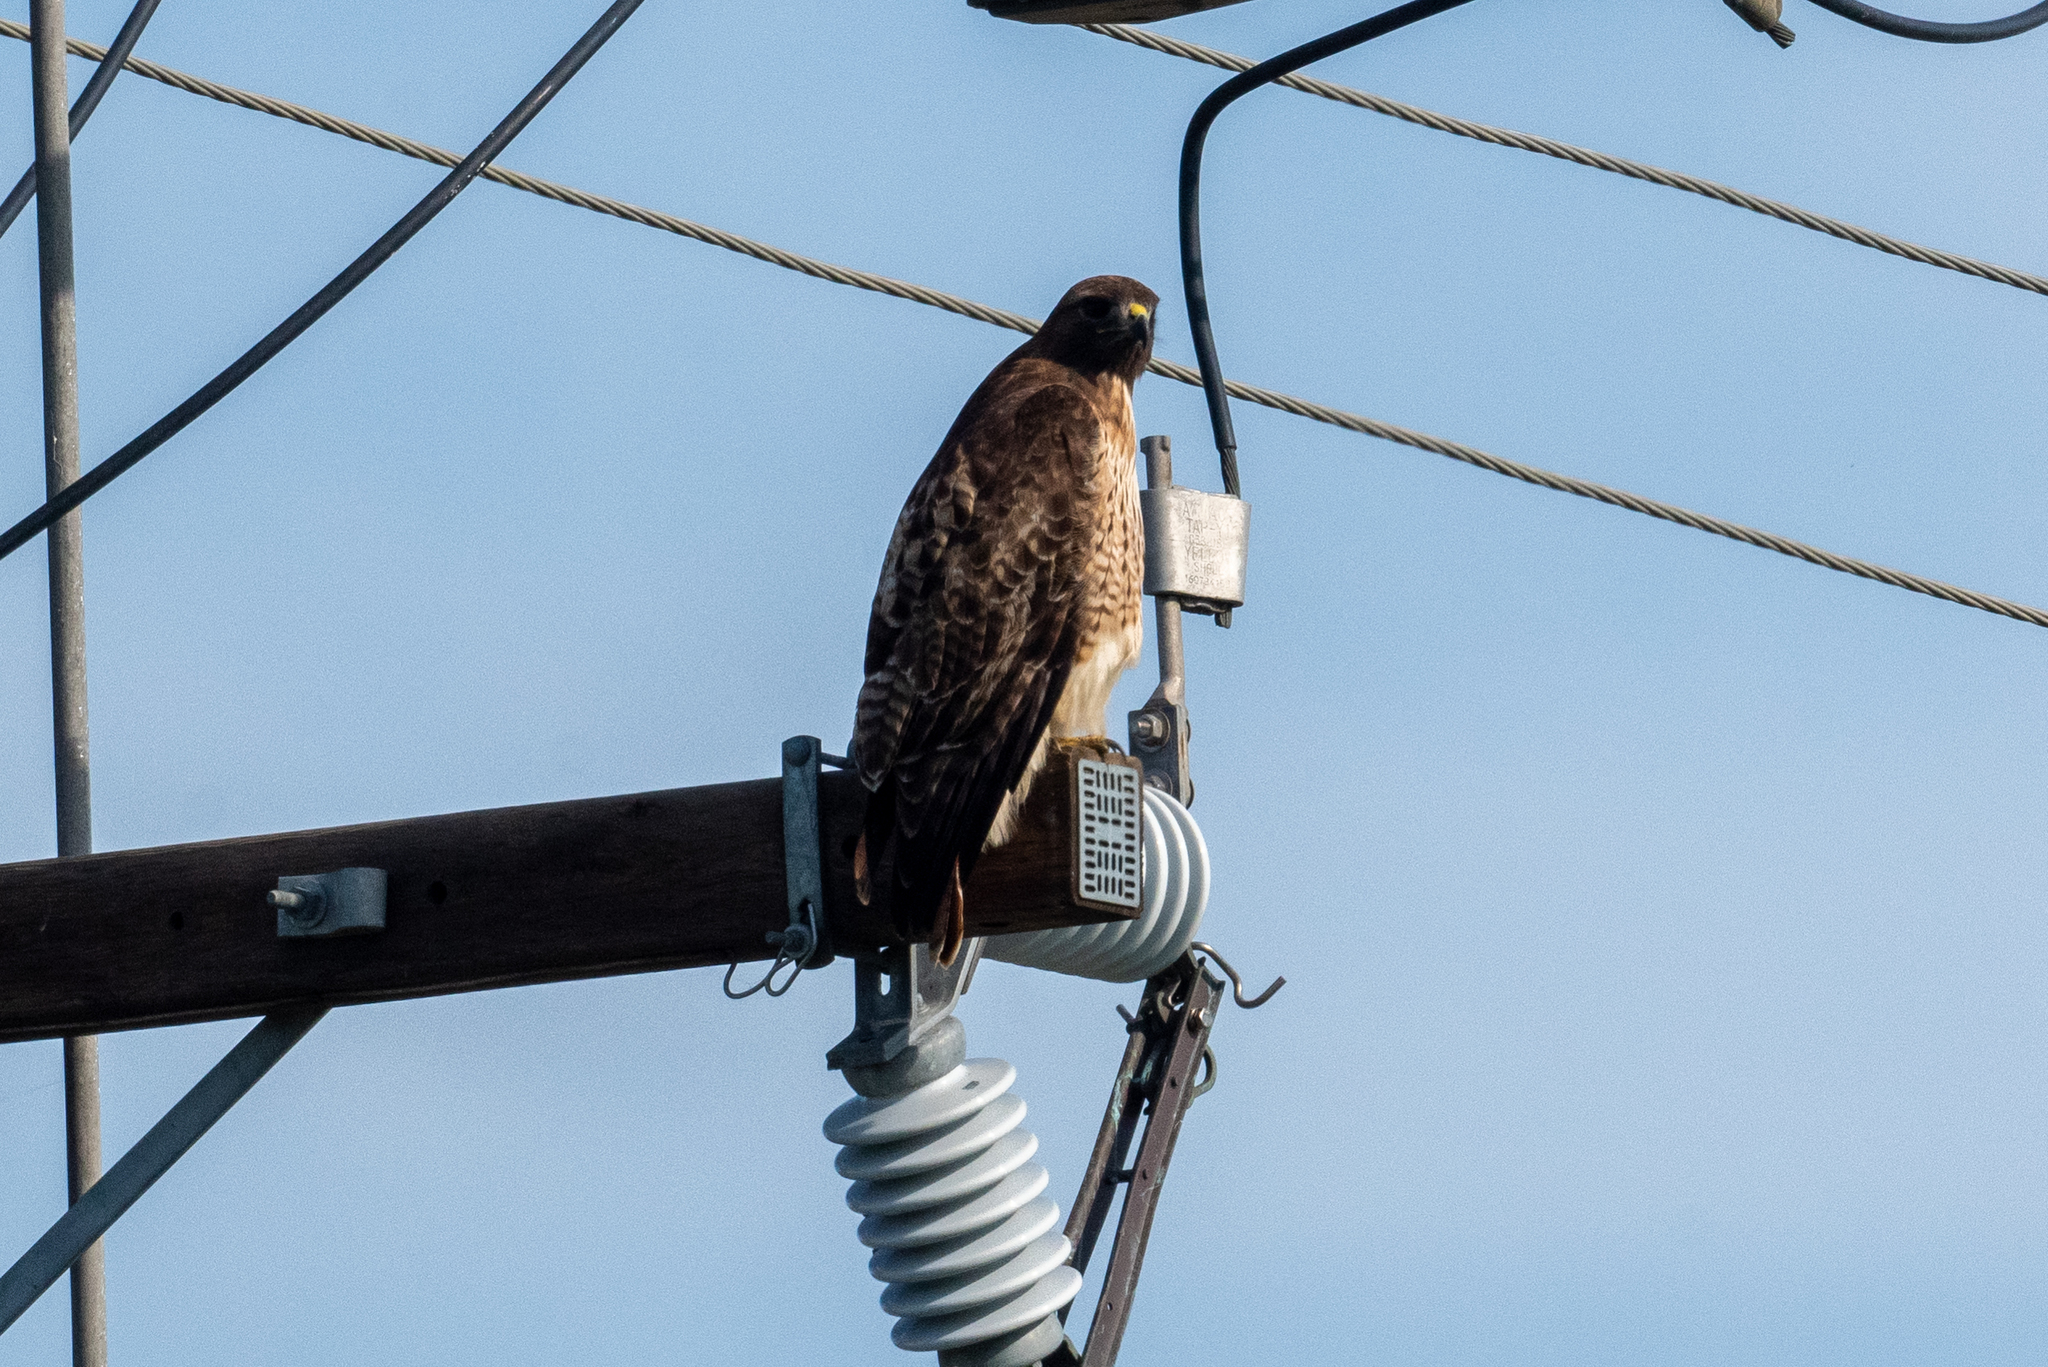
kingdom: Animalia
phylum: Chordata
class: Aves
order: Accipitriformes
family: Accipitridae
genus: Buteo
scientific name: Buteo jamaicensis
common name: Red-tailed hawk
